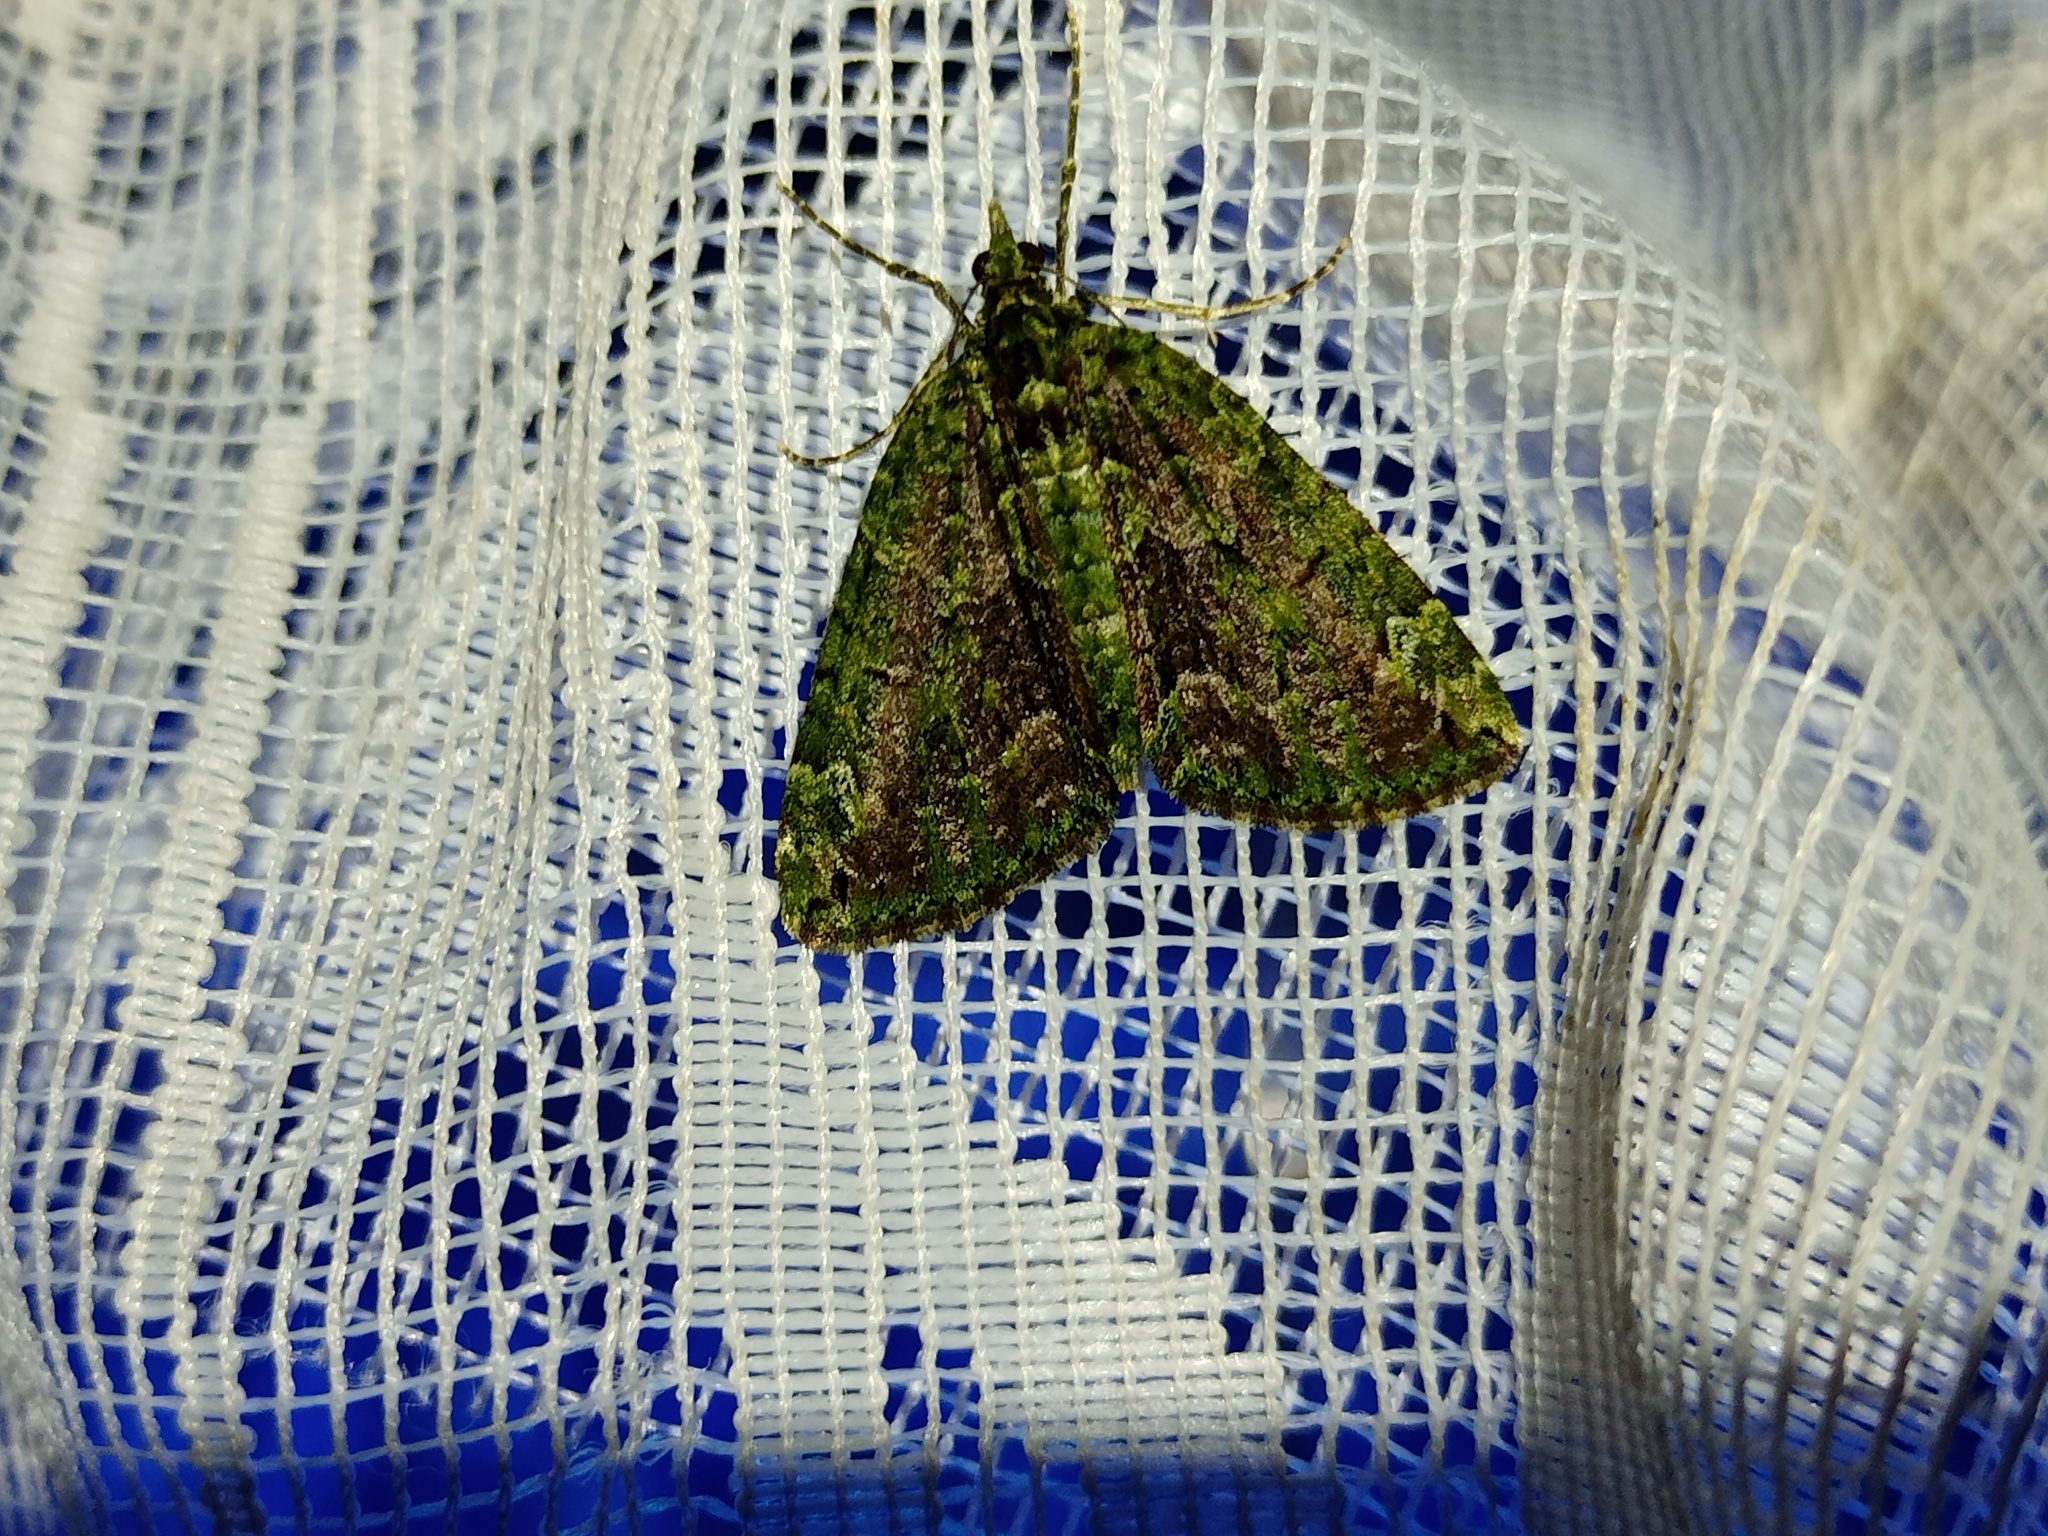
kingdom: Animalia
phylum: Arthropoda
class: Insecta
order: Lepidoptera
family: Geometridae
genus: Chloroclysta
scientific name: Chloroclysta siterata
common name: Red-green carpet
